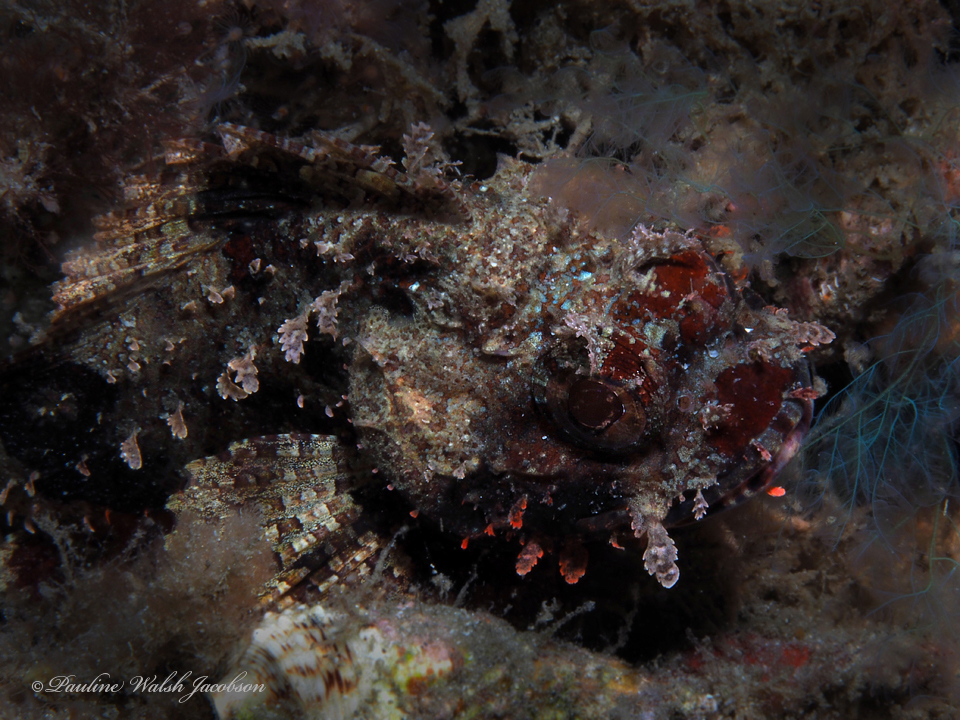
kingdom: Animalia
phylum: Chordata
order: Scorpaeniformes
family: Scorpaenidae
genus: Scorpaena
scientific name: Scorpaena plumieri
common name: Spotted scorpionfish
